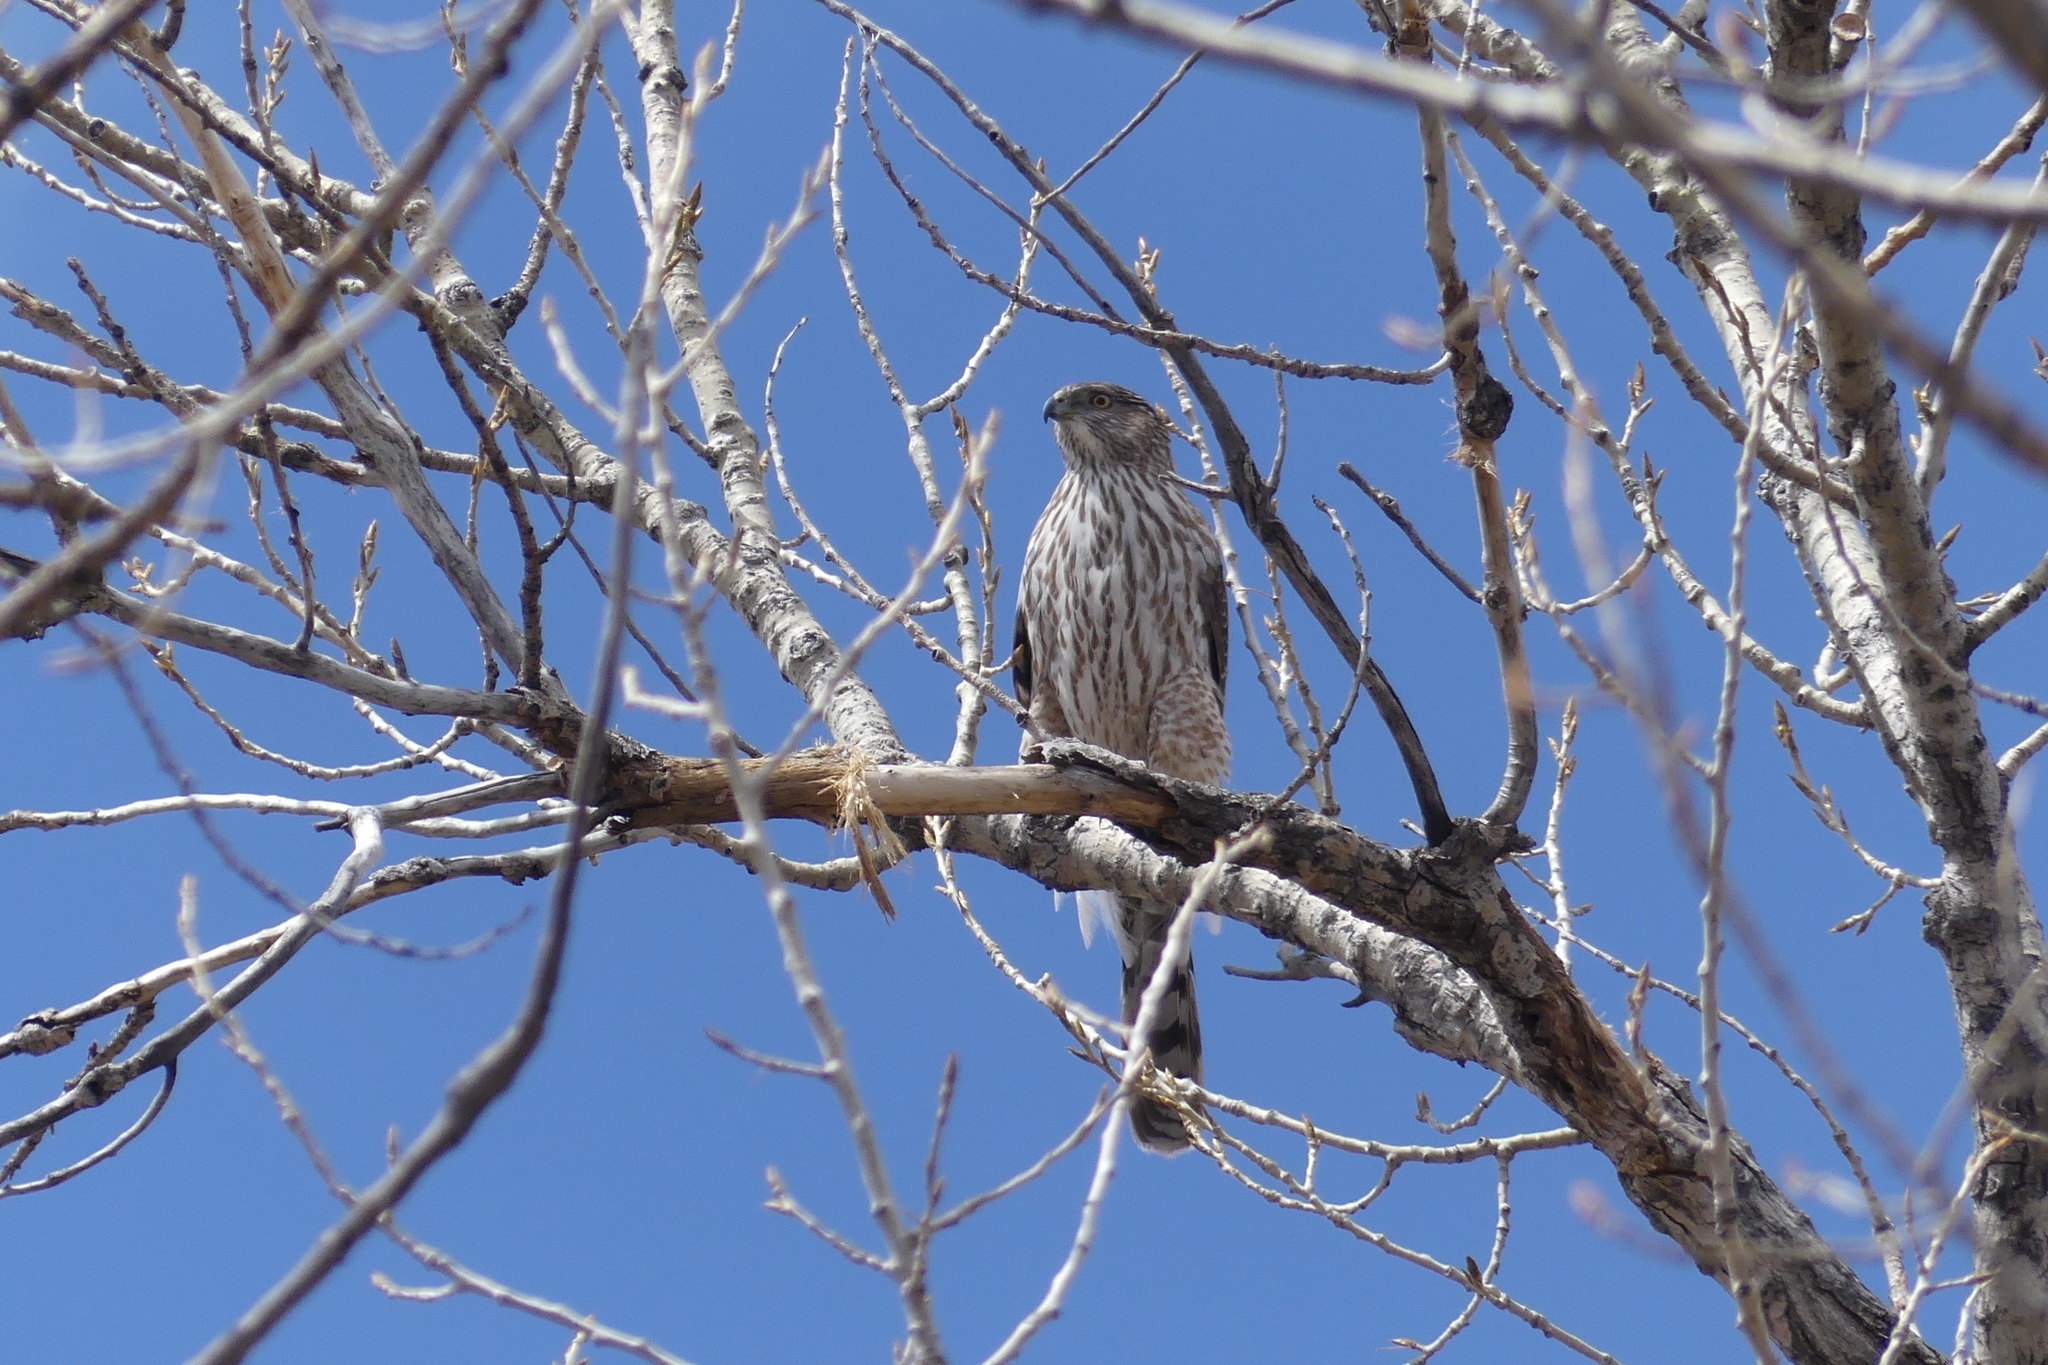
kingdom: Animalia
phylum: Chordata
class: Aves
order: Accipitriformes
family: Accipitridae
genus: Accipiter
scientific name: Accipiter cooperii
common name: Cooper's hawk
